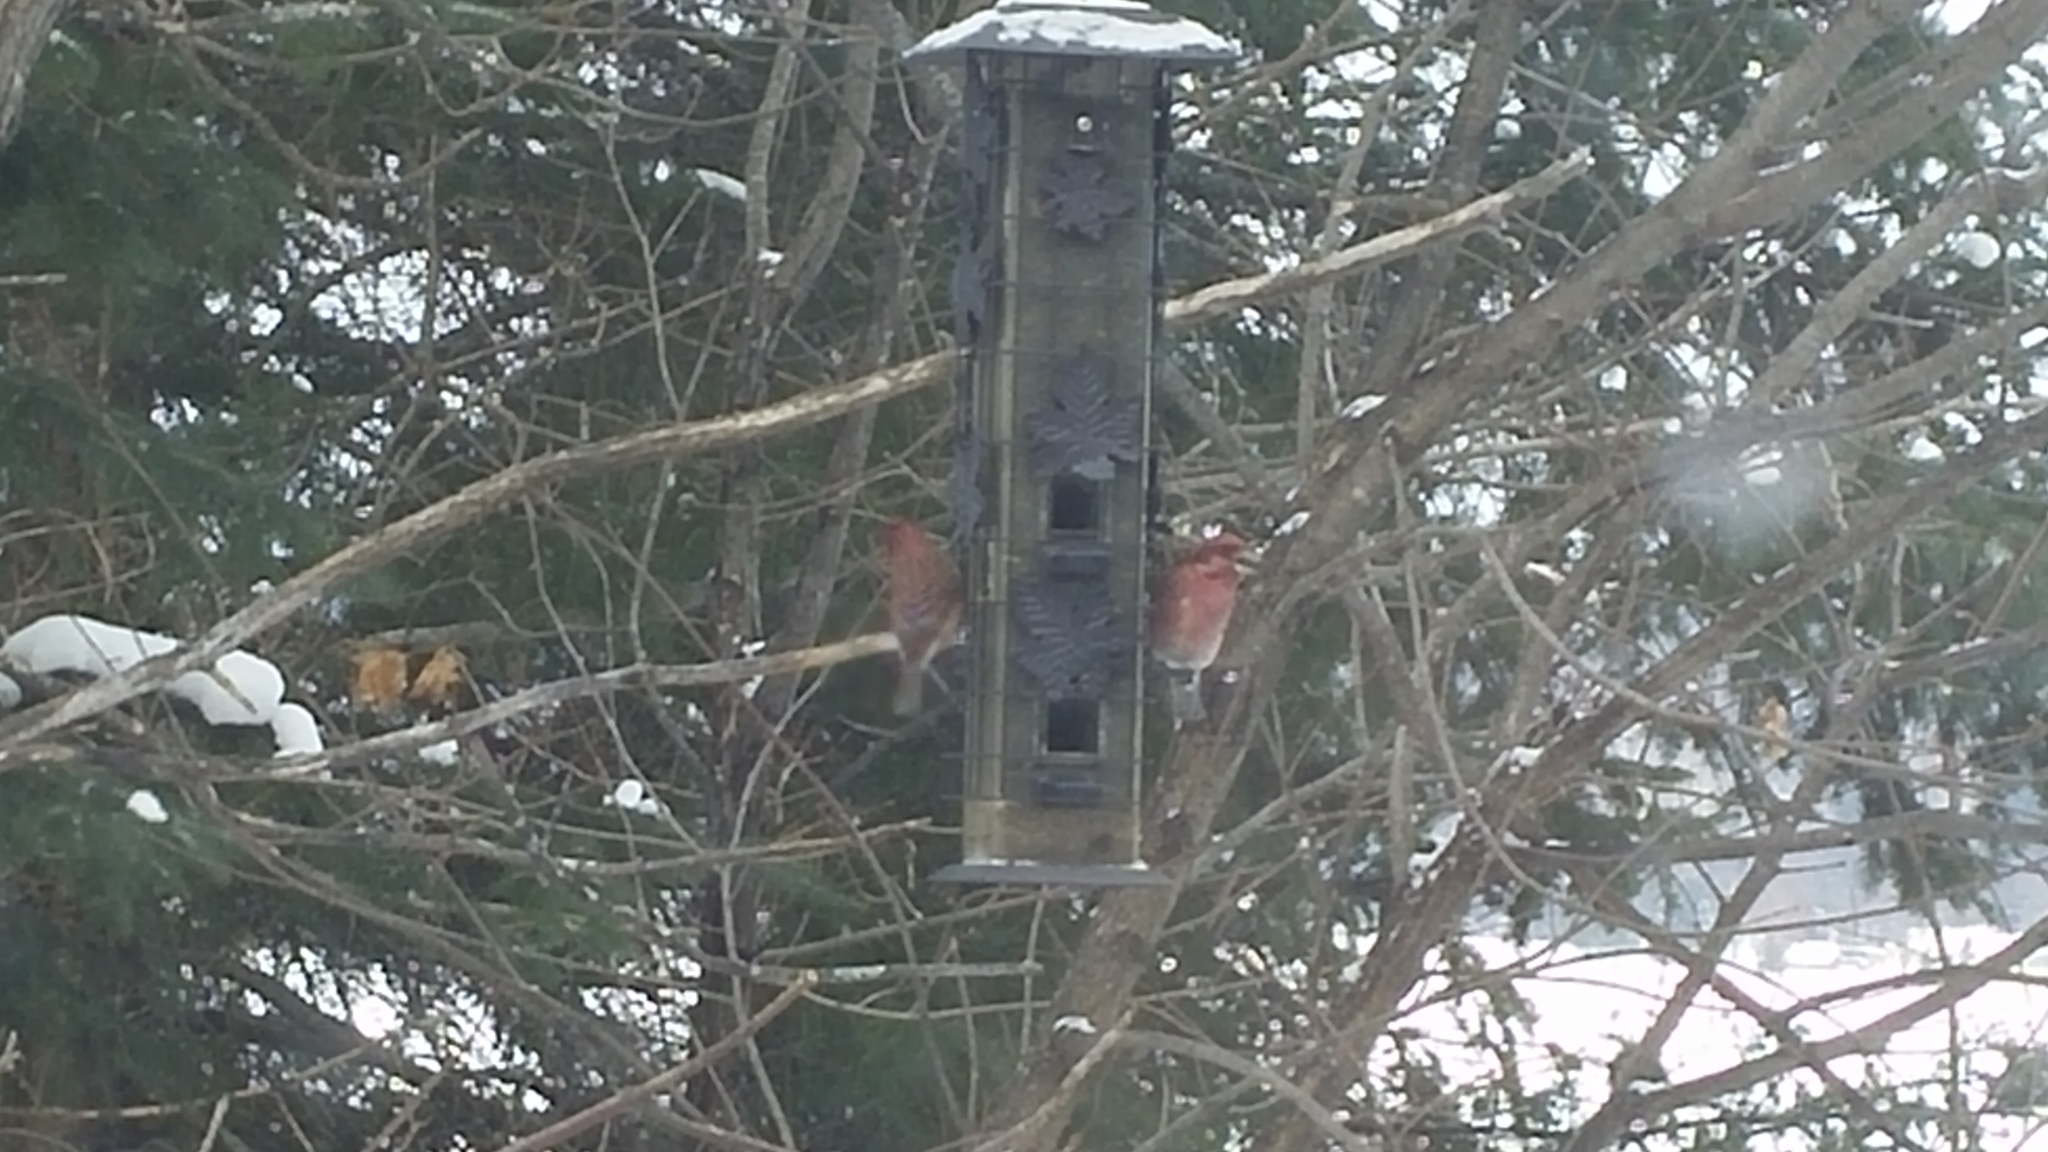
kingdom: Animalia
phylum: Chordata
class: Aves
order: Passeriformes
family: Fringillidae
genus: Haemorhous
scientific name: Haemorhous purpureus
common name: Purple finch
